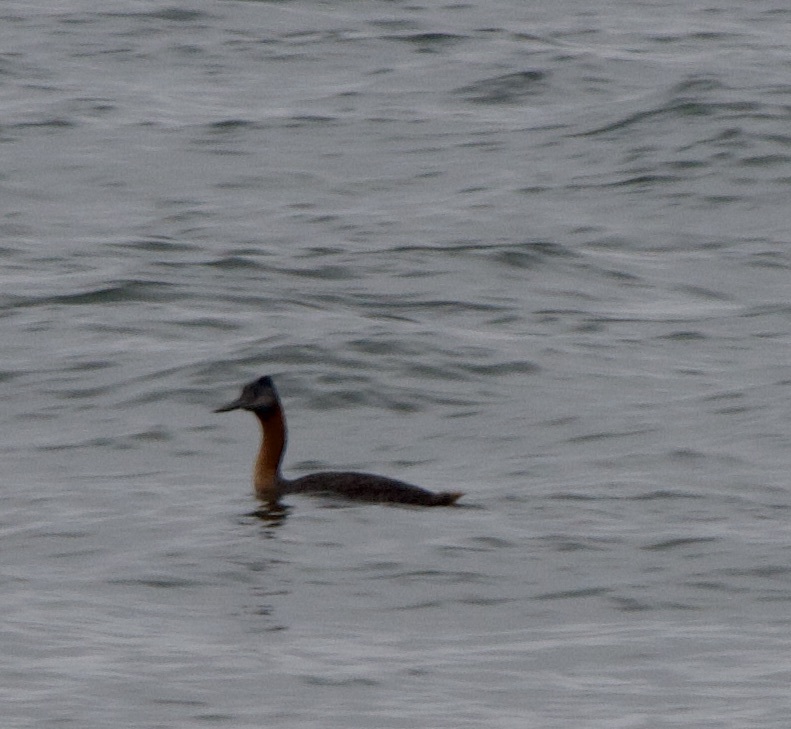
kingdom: Animalia
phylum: Chordata
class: Aves
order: Podicipediformes
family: Podicipedidae
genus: Podiceps
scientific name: Podiceps major
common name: Great grebe
